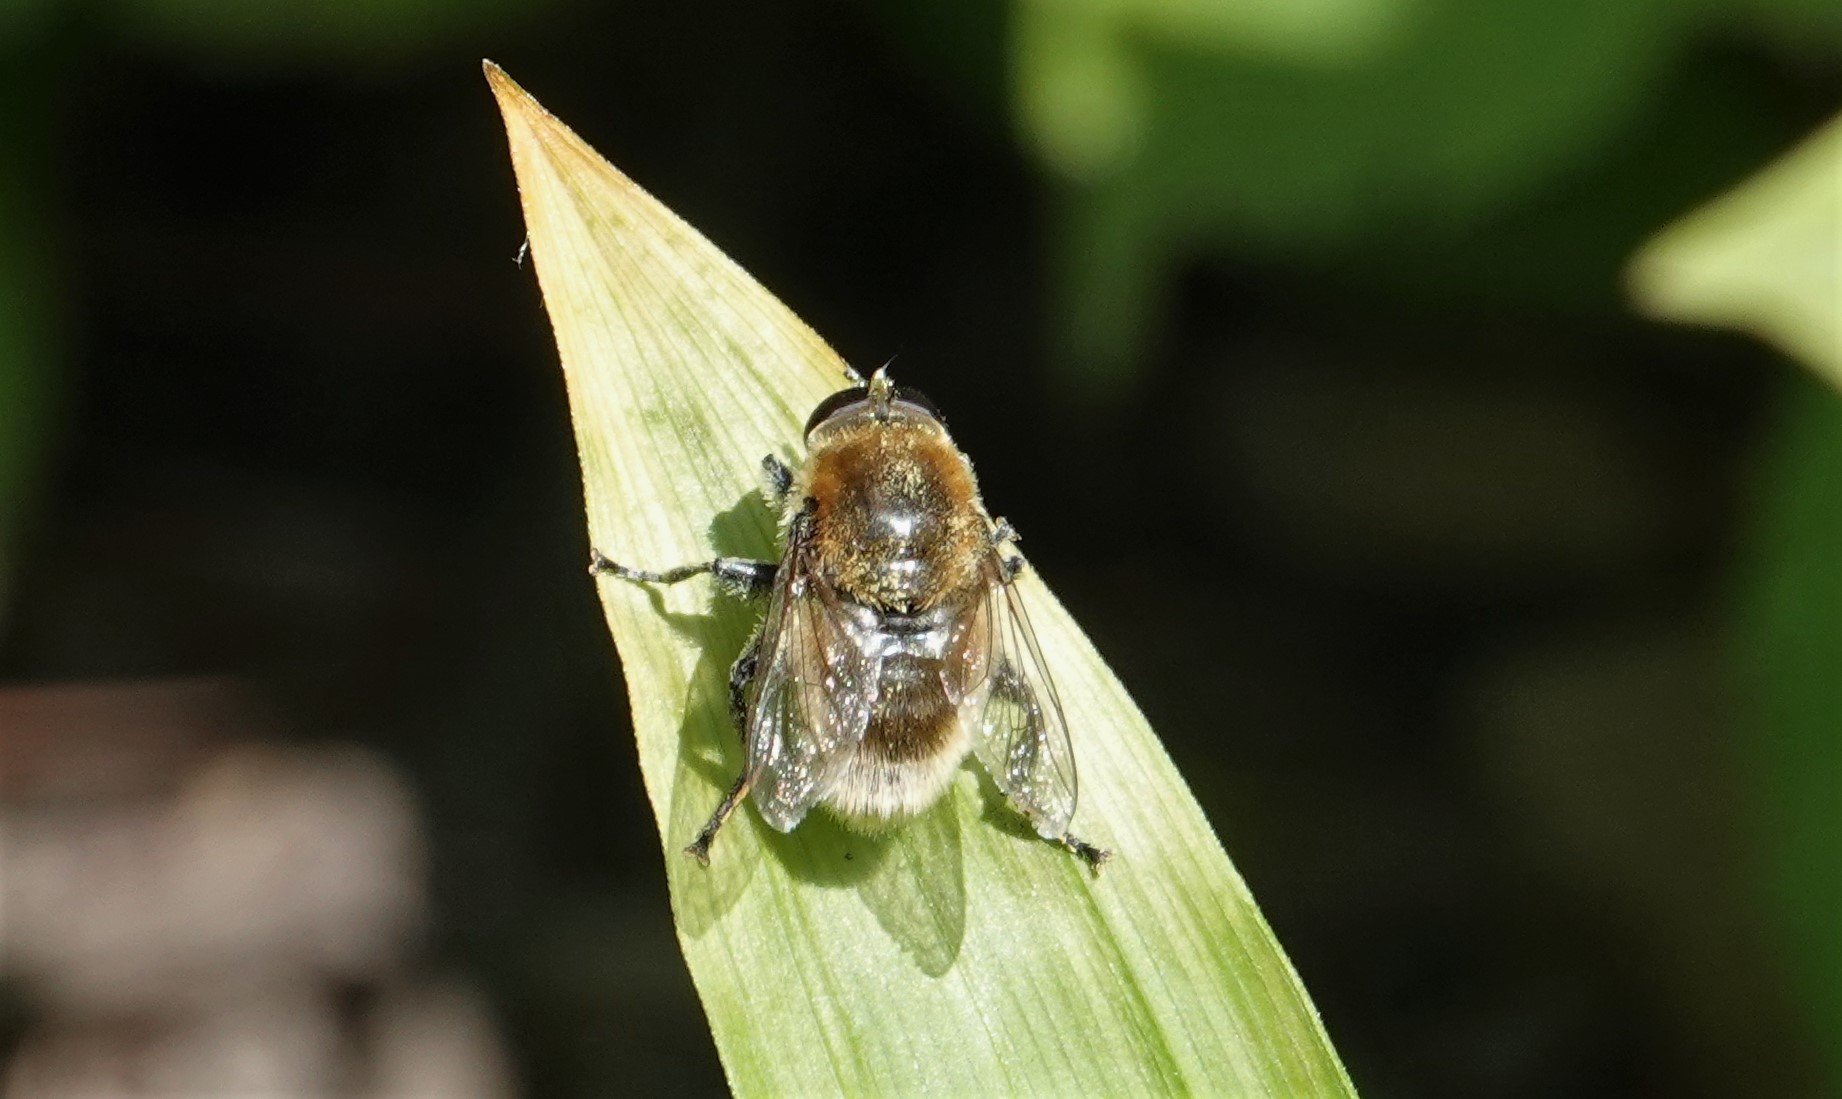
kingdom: Animalia
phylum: Arthropoda
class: Insecta
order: Diptera
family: Syrphidae
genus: Merodon
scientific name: Merodon equestris
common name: Greater bulb-fly
